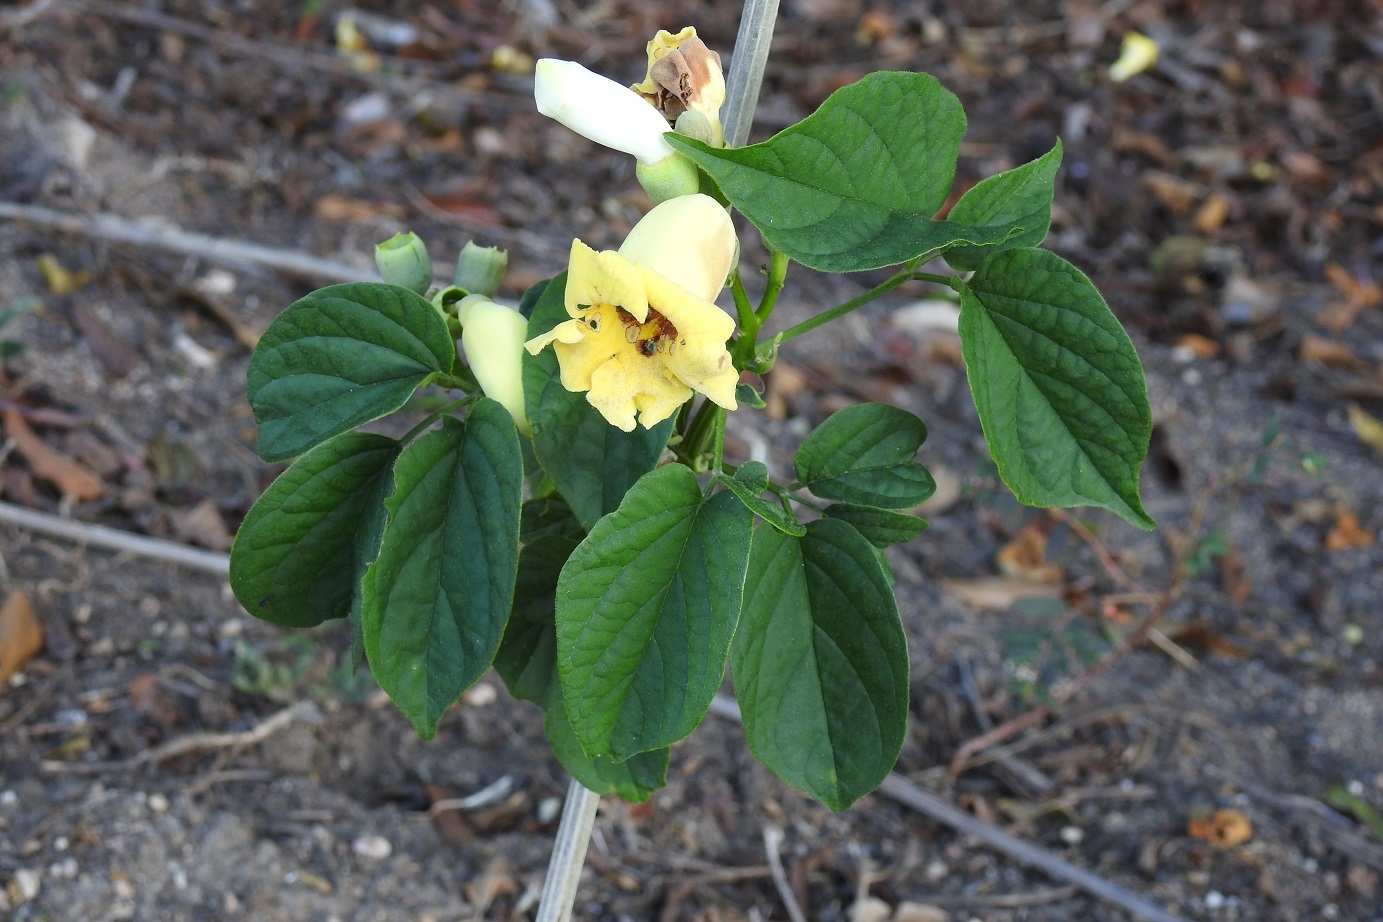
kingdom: Plantae
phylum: Tracheophyta
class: Magnoliopsida
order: Lamiales
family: Bignoniaceae
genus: Amphilophium
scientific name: Amphilophium crucigerum
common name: Monkey comb
